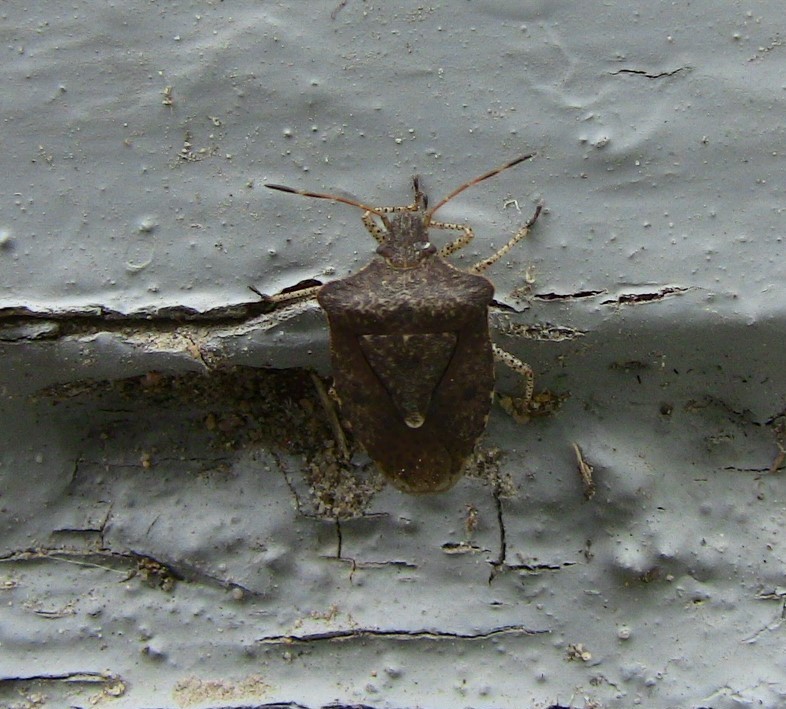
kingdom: Animalia
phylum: Arthropoda
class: Insecta
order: Hemiptera
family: Pentatomidae
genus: Euschistus
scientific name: Euschistus tristigmus
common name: Dusky stink bug
